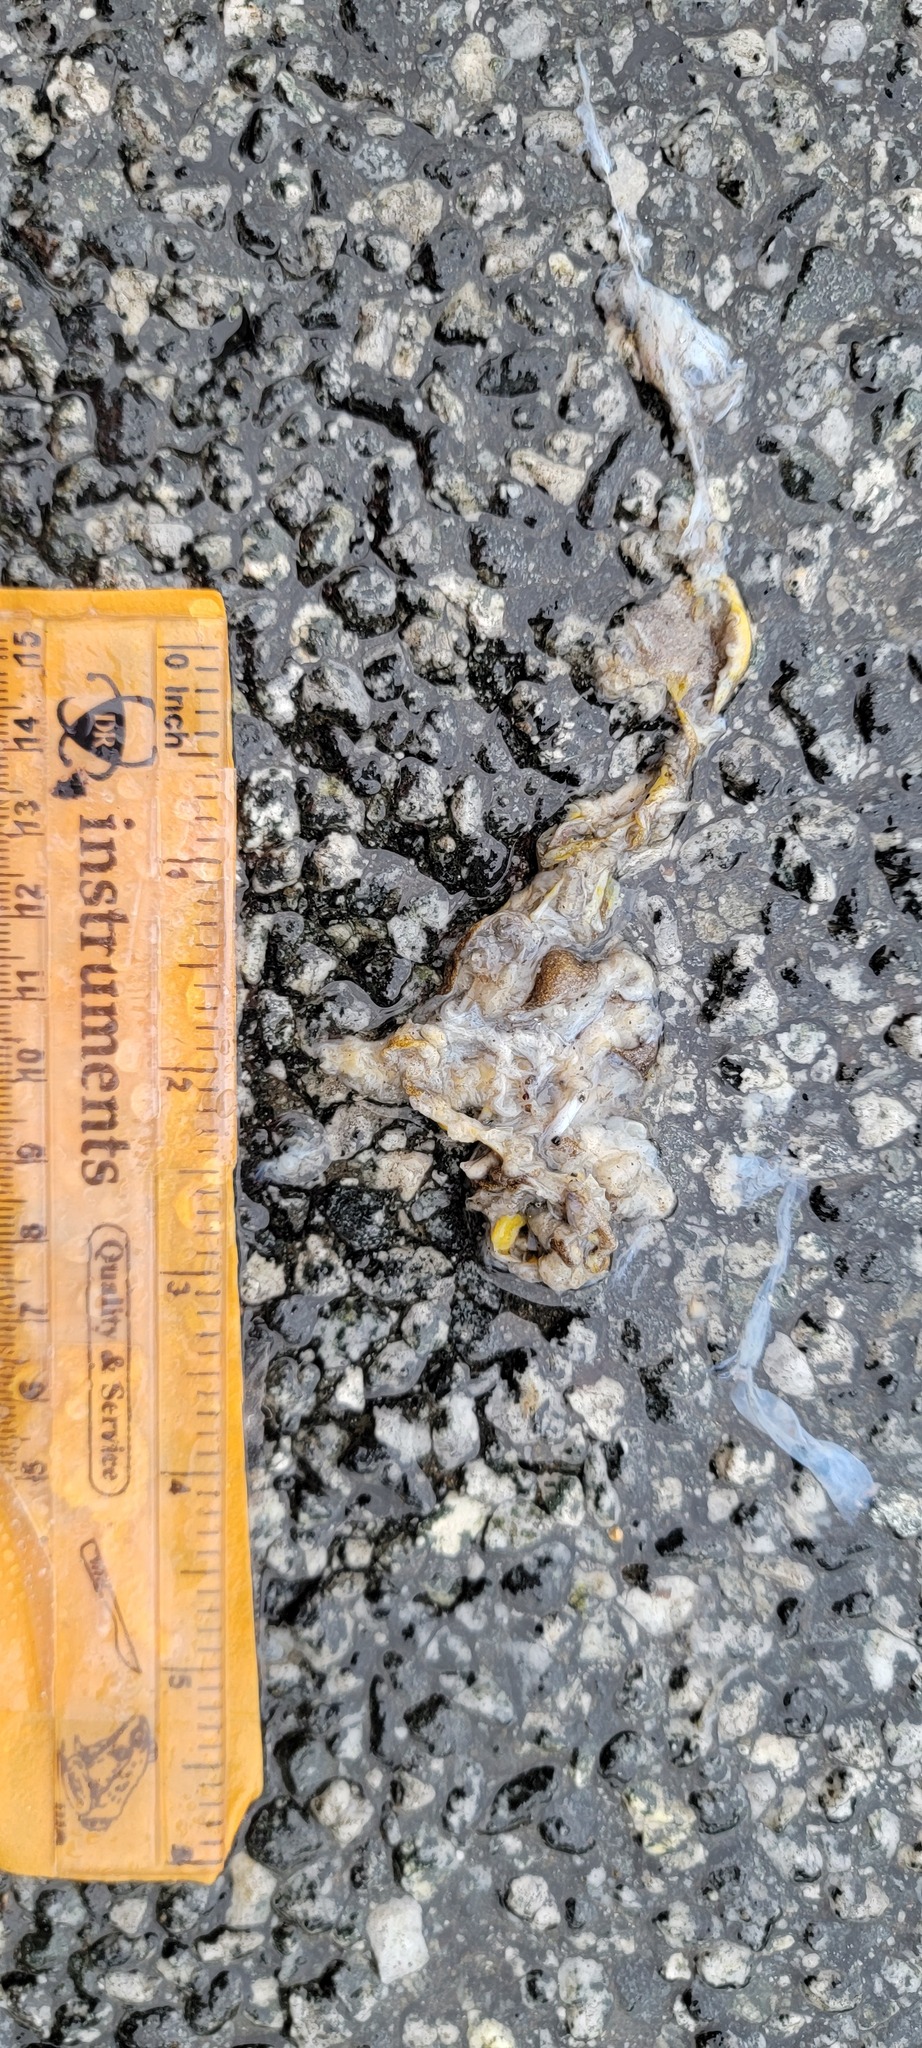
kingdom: Animalia
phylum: Chordata
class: Amphibia
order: Caudata
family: Salamandridae
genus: Taricha
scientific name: Taricha
